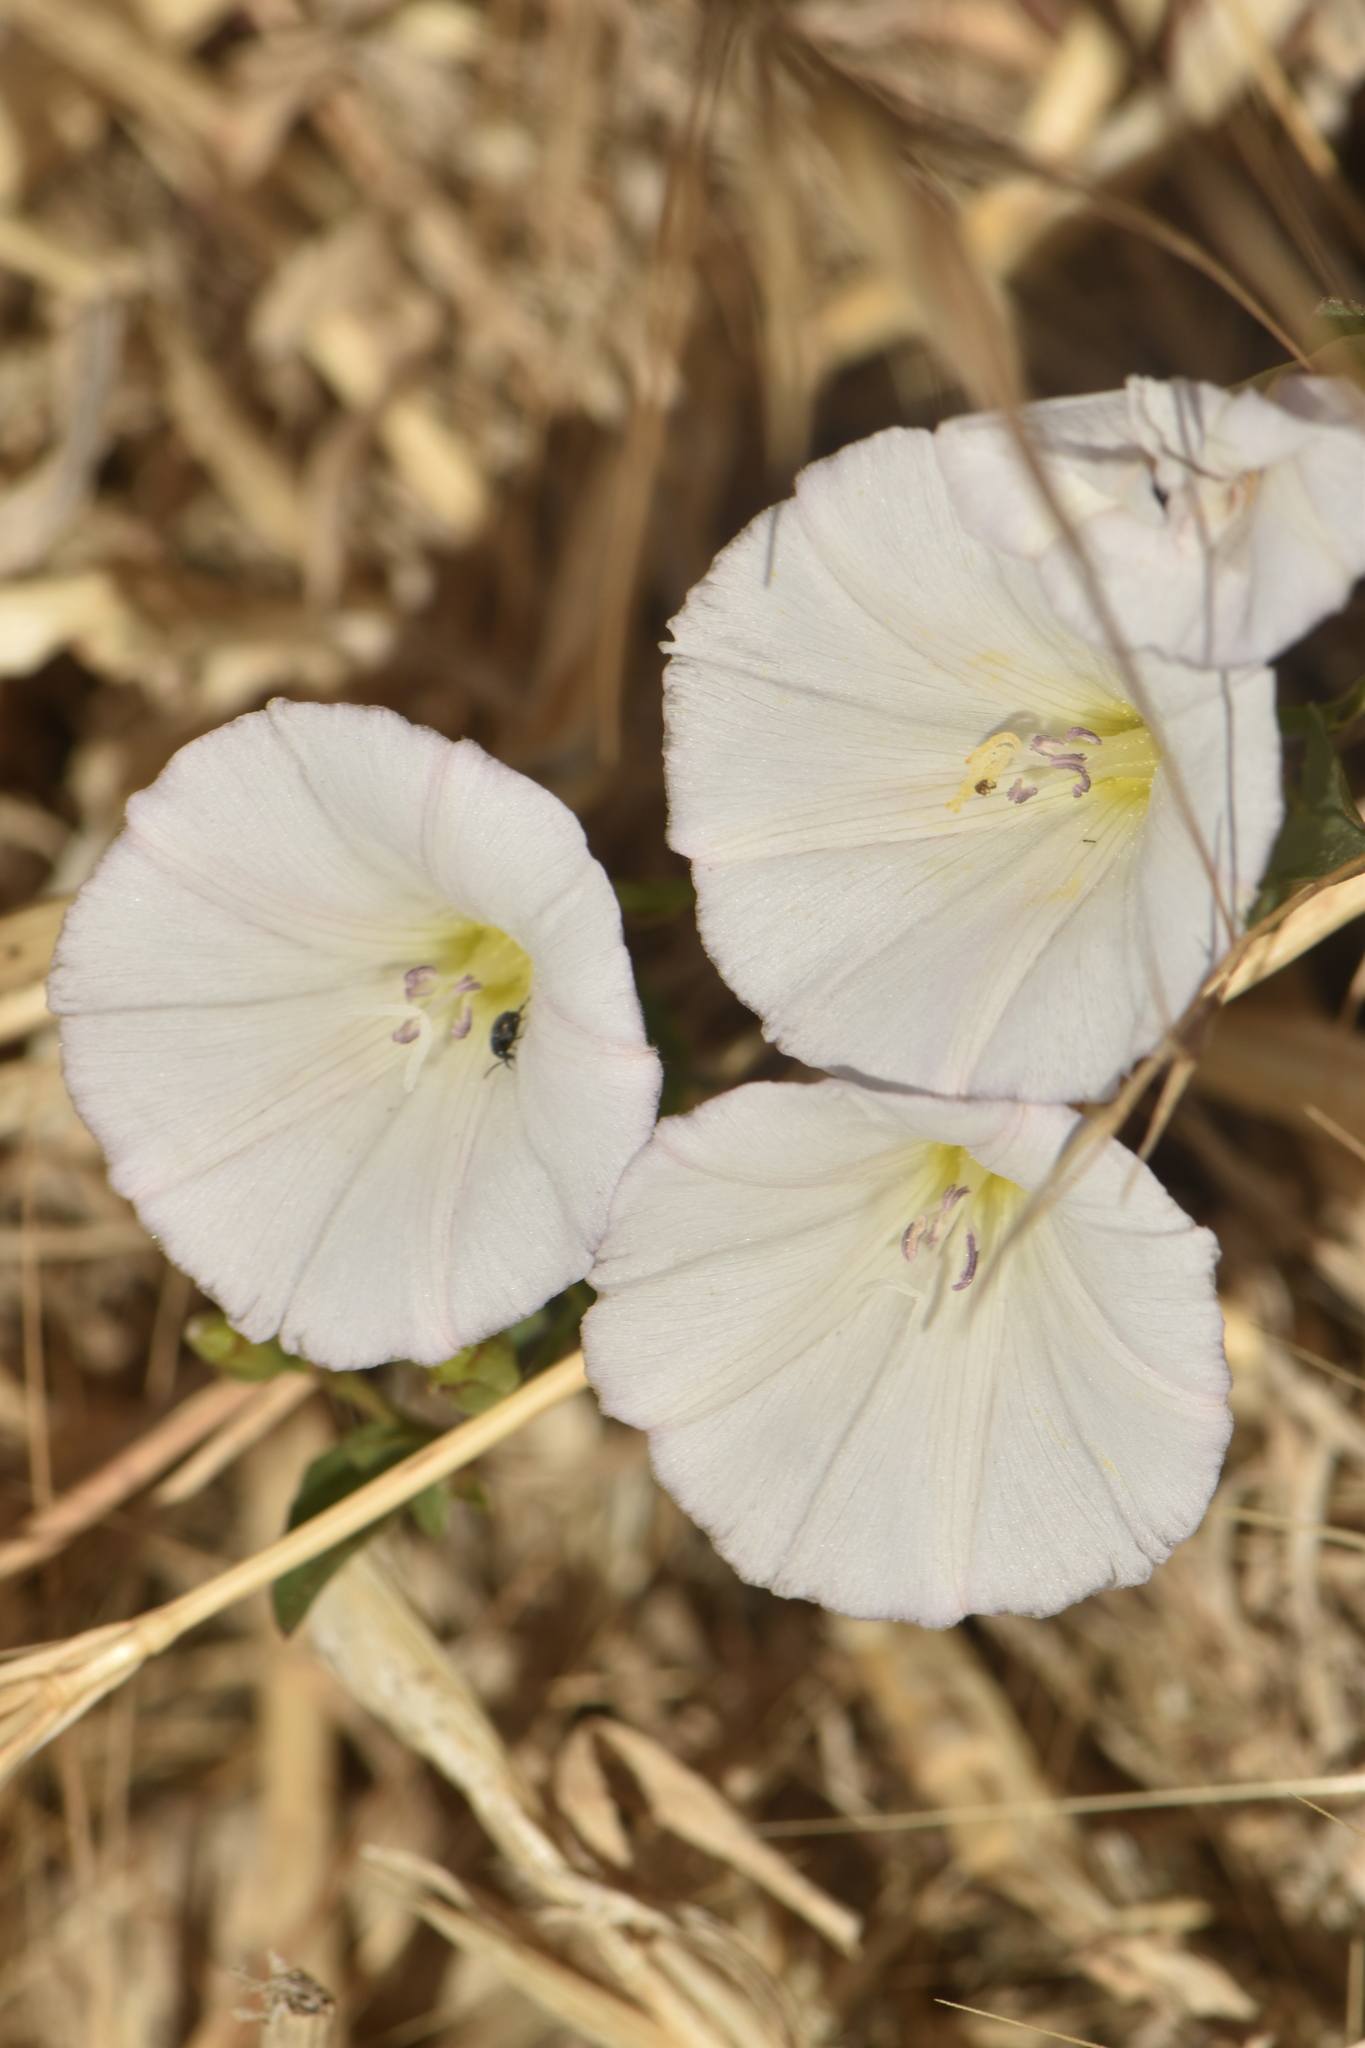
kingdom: Plantae
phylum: Tracheophyta
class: Magnoliopsida
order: Solanales
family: Convolvulaceae
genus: Convolvulus
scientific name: Convolvulus arvensis
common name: Field bindweed
